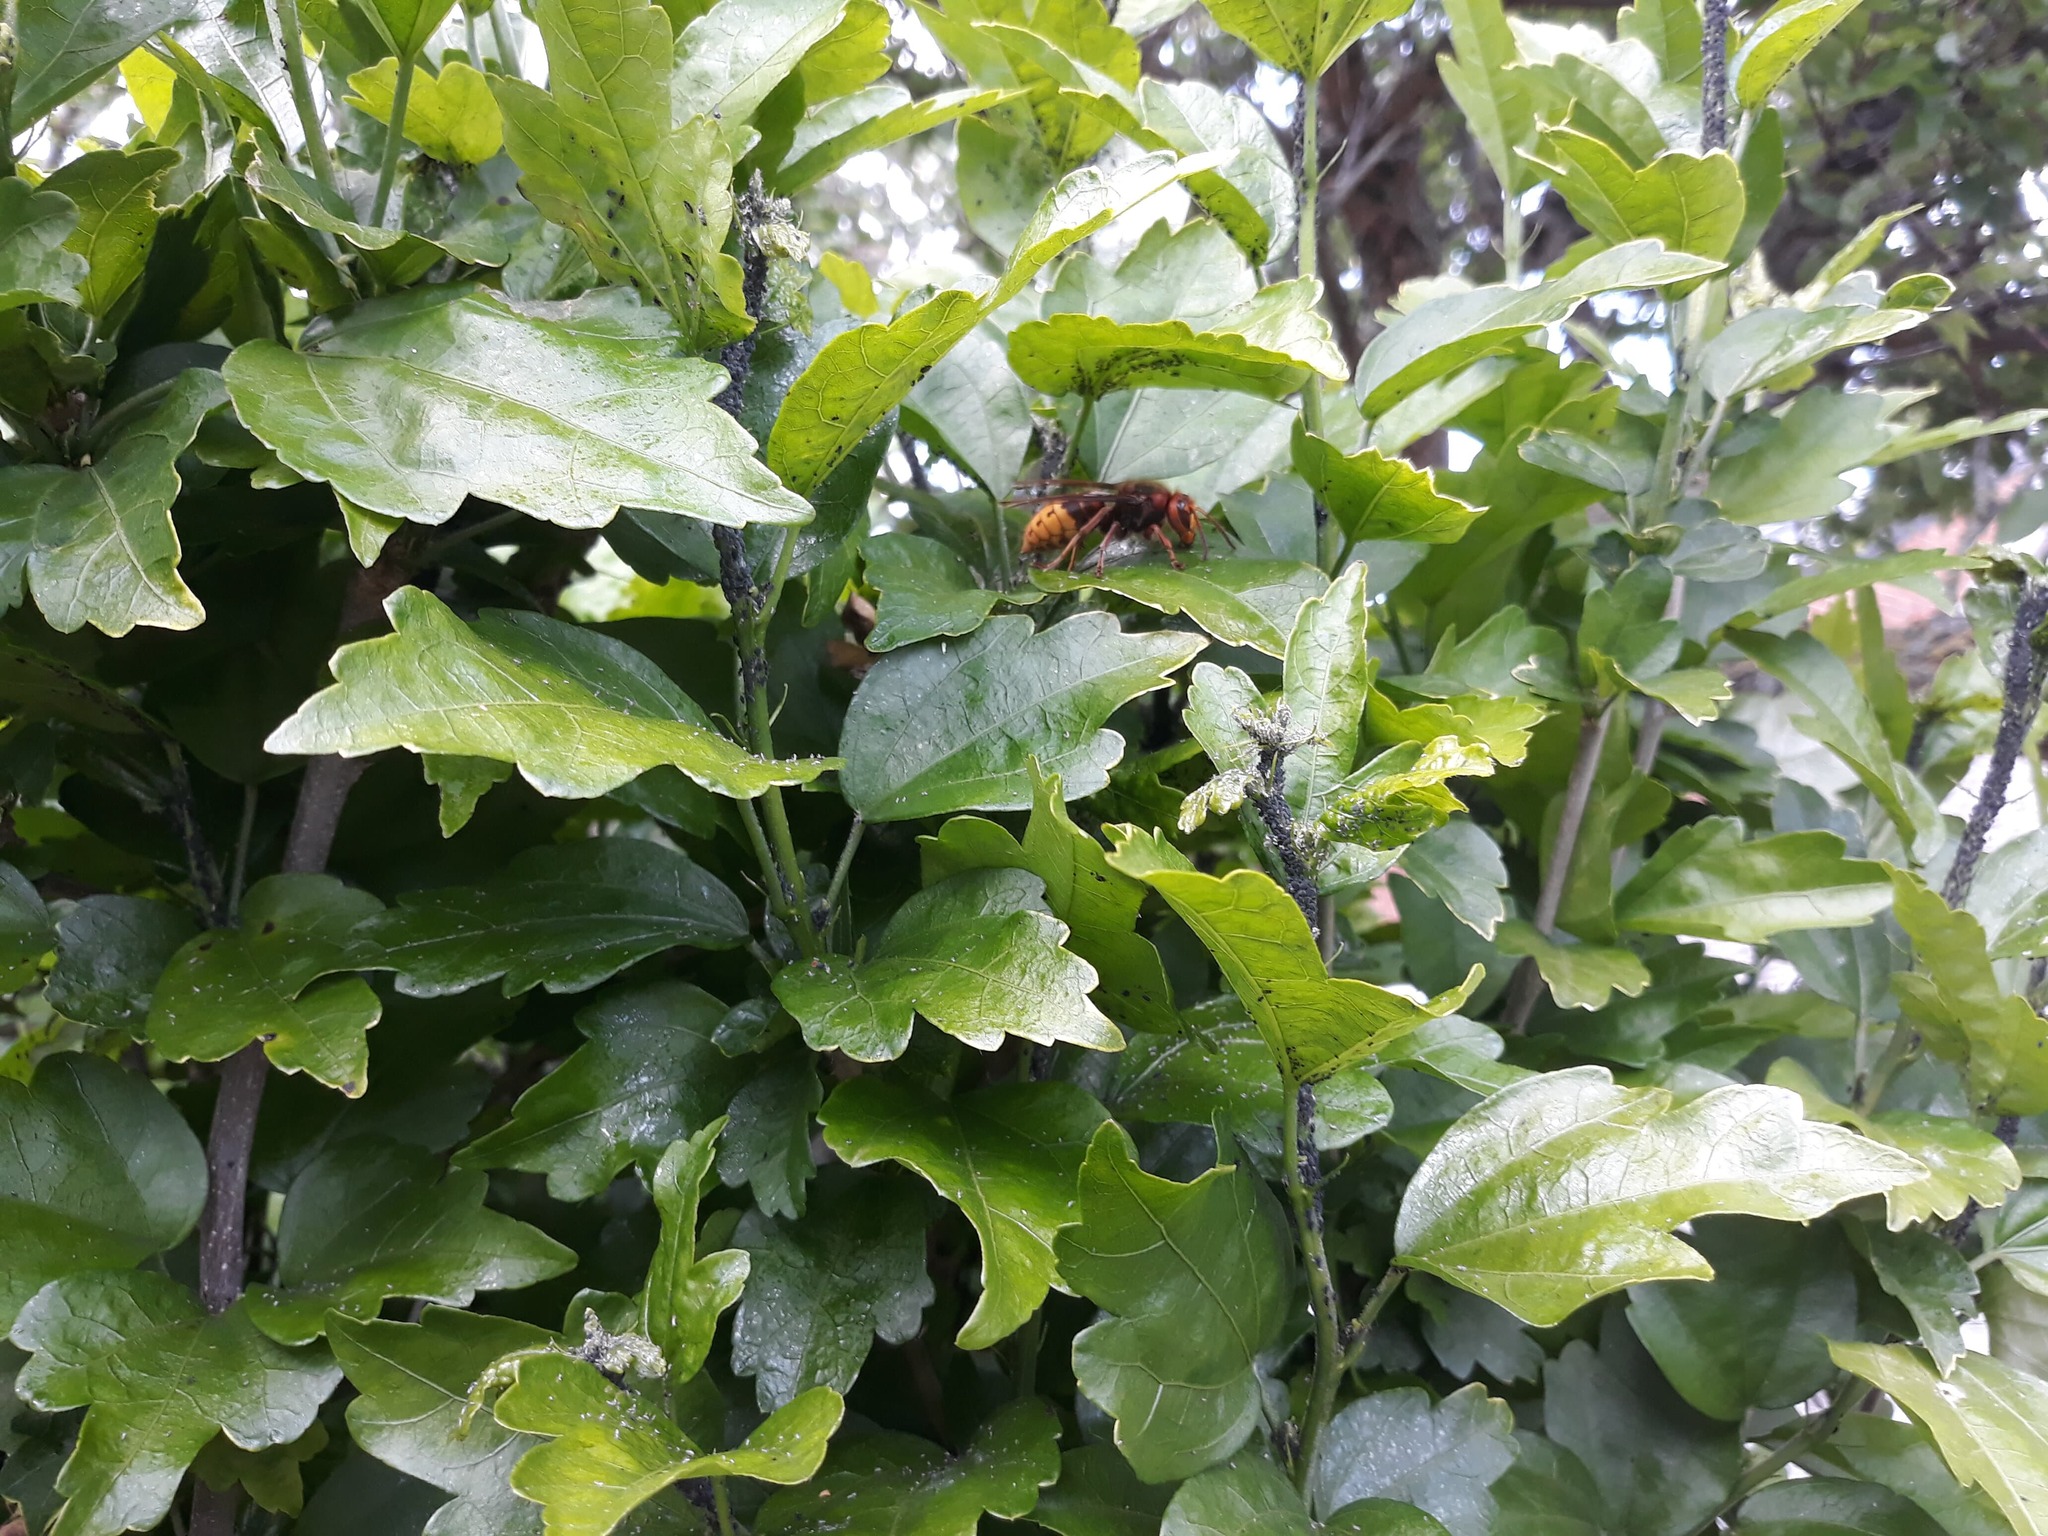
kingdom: Animalia
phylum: Arthropoda
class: Insecta
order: Hymenoptera
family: Vespidae
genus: Vespa
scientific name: Vespa crabro
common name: Hornet
